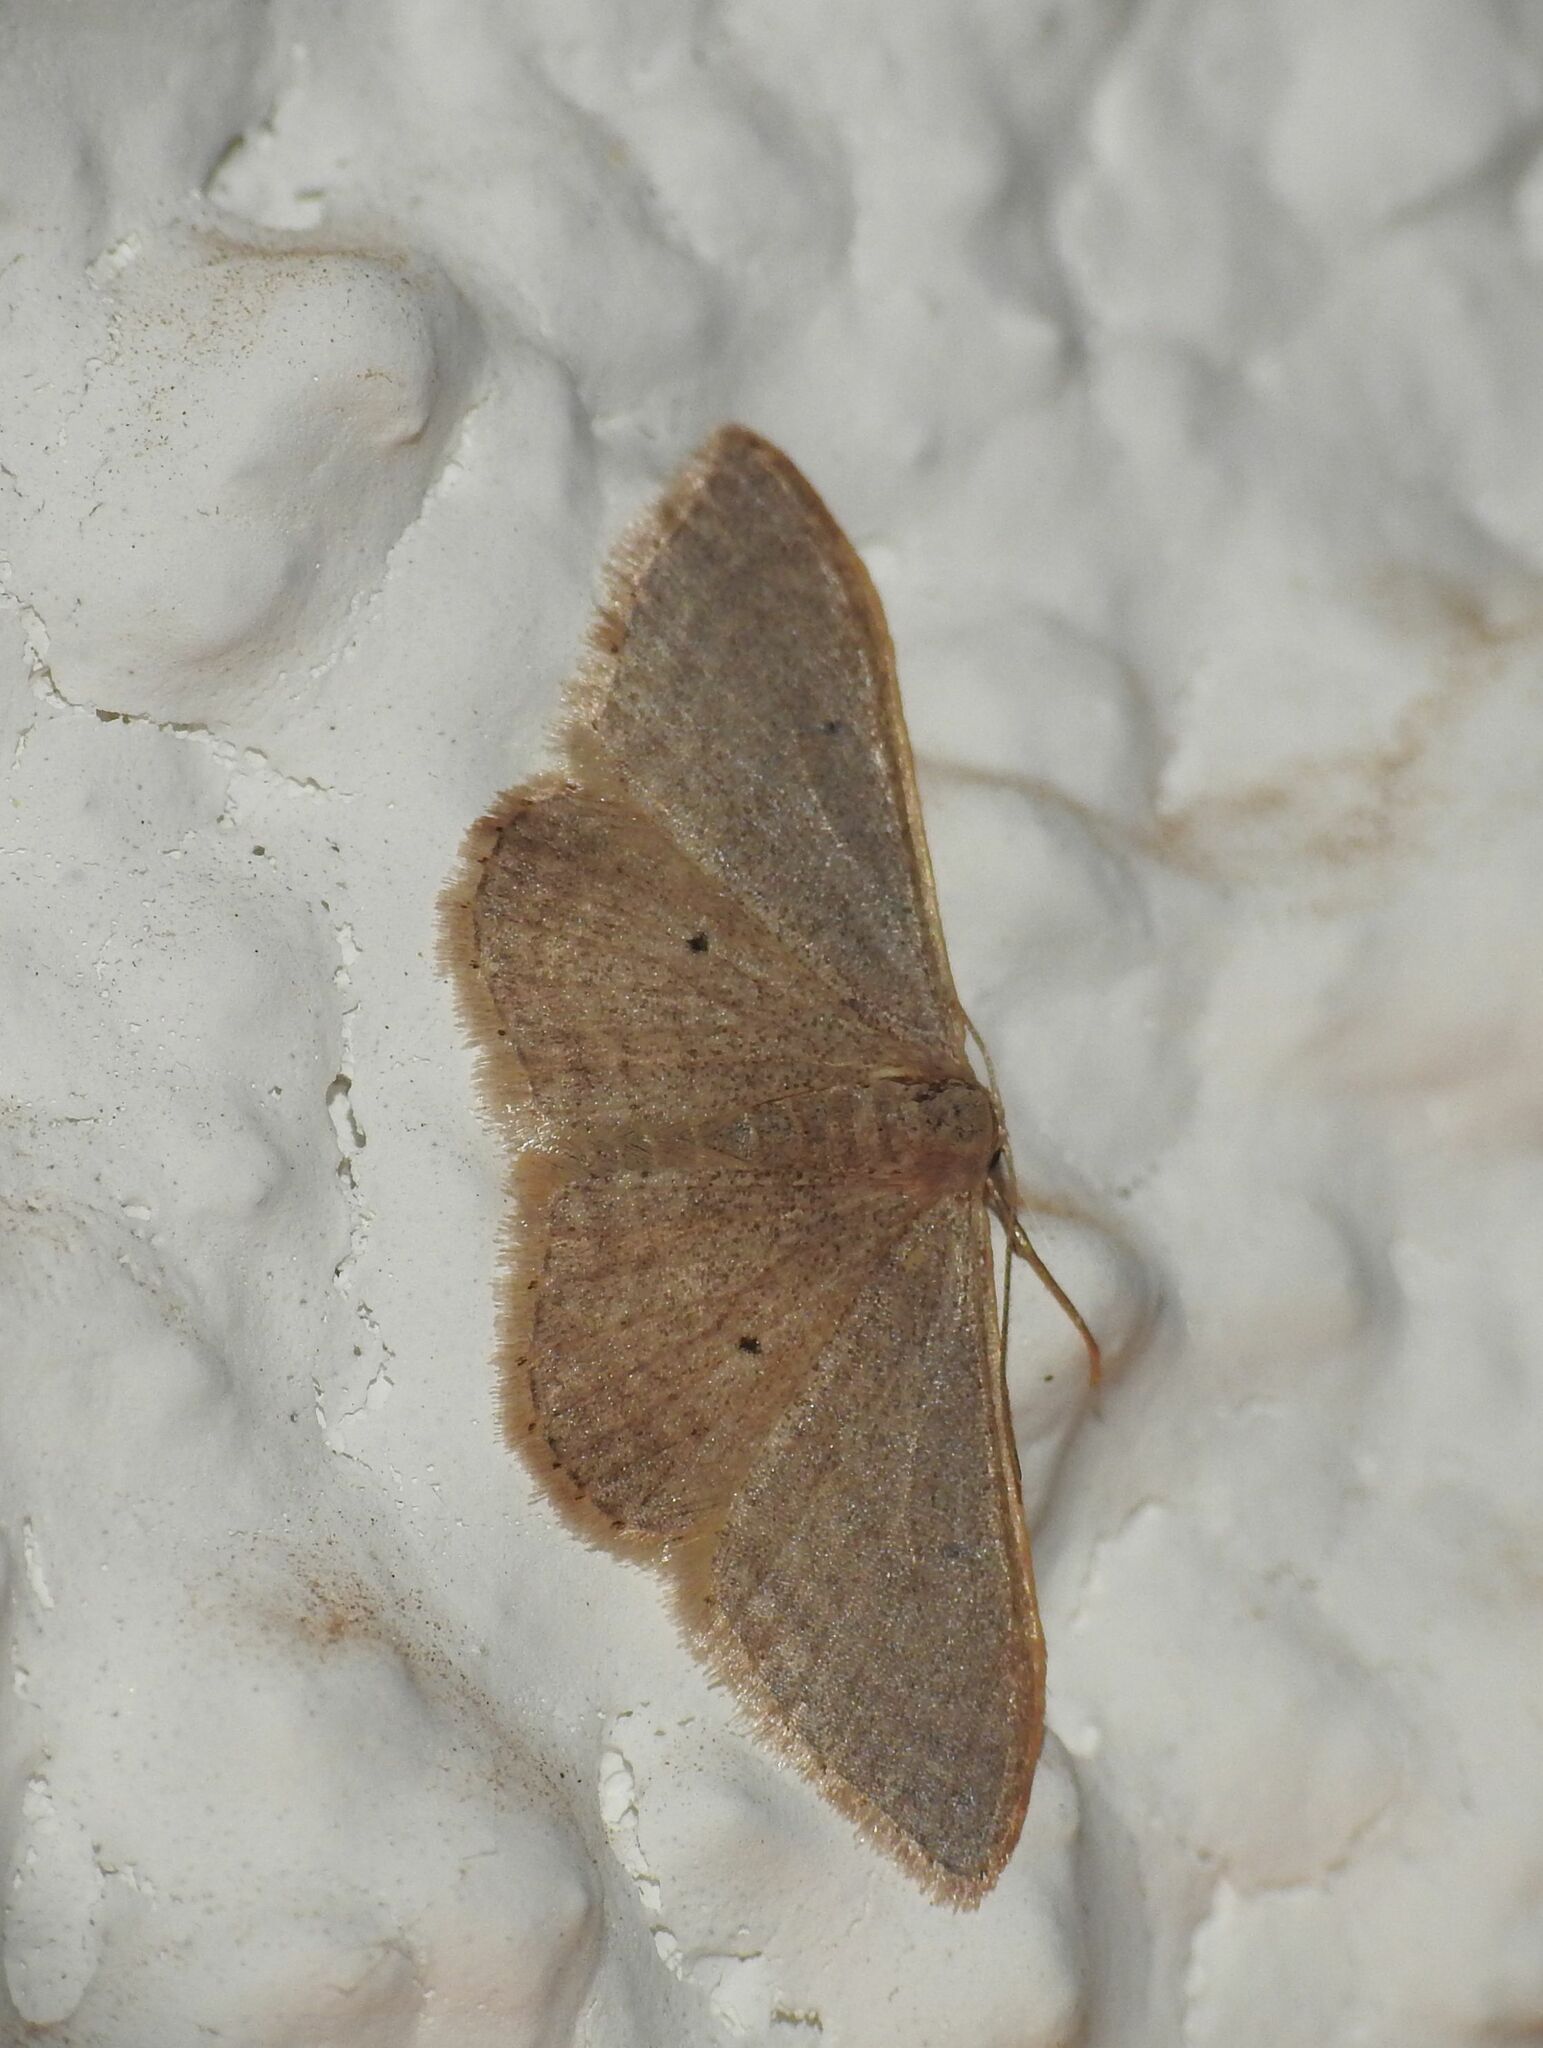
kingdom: Animalia
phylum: Arthropoda
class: Insecta
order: Lepidoptera
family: Geometridae
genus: Idaea
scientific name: Idaea distinctaria
